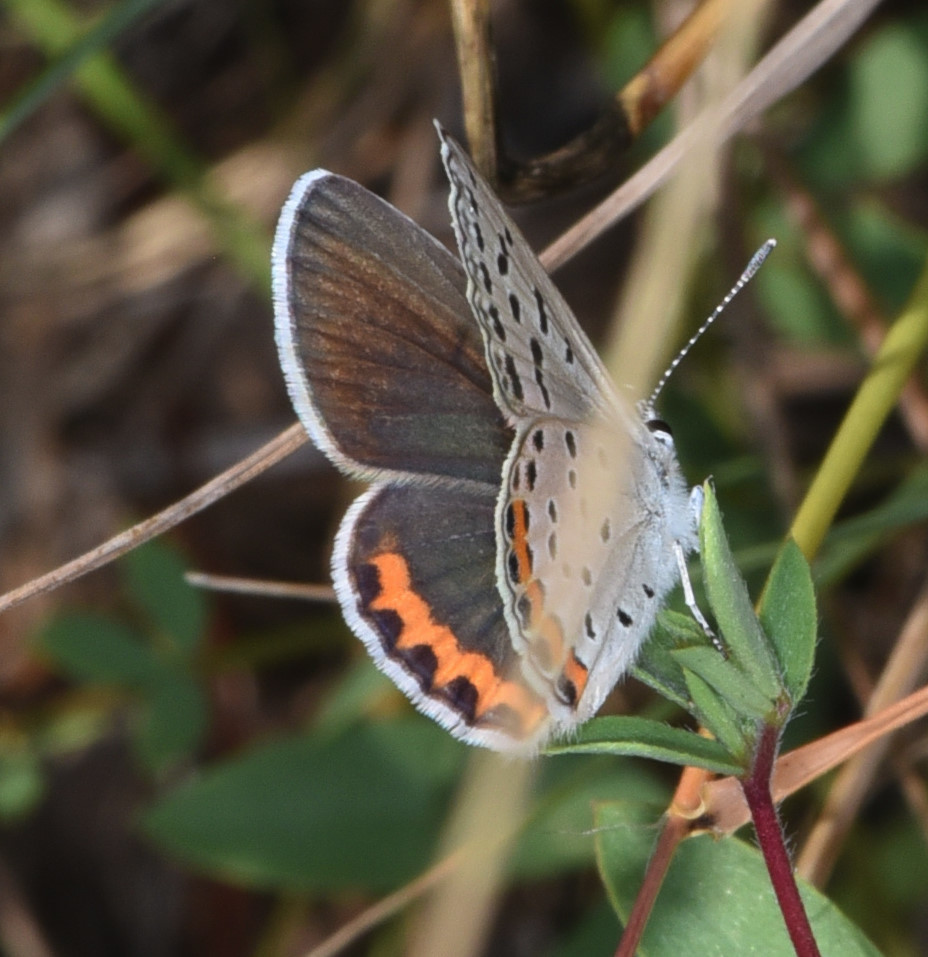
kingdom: Animalia
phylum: Arthropoda
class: Insecta
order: Lepidoptera
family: Lycaenidae
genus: Icaricia
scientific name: Icaricia acmon
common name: Acmon blue
